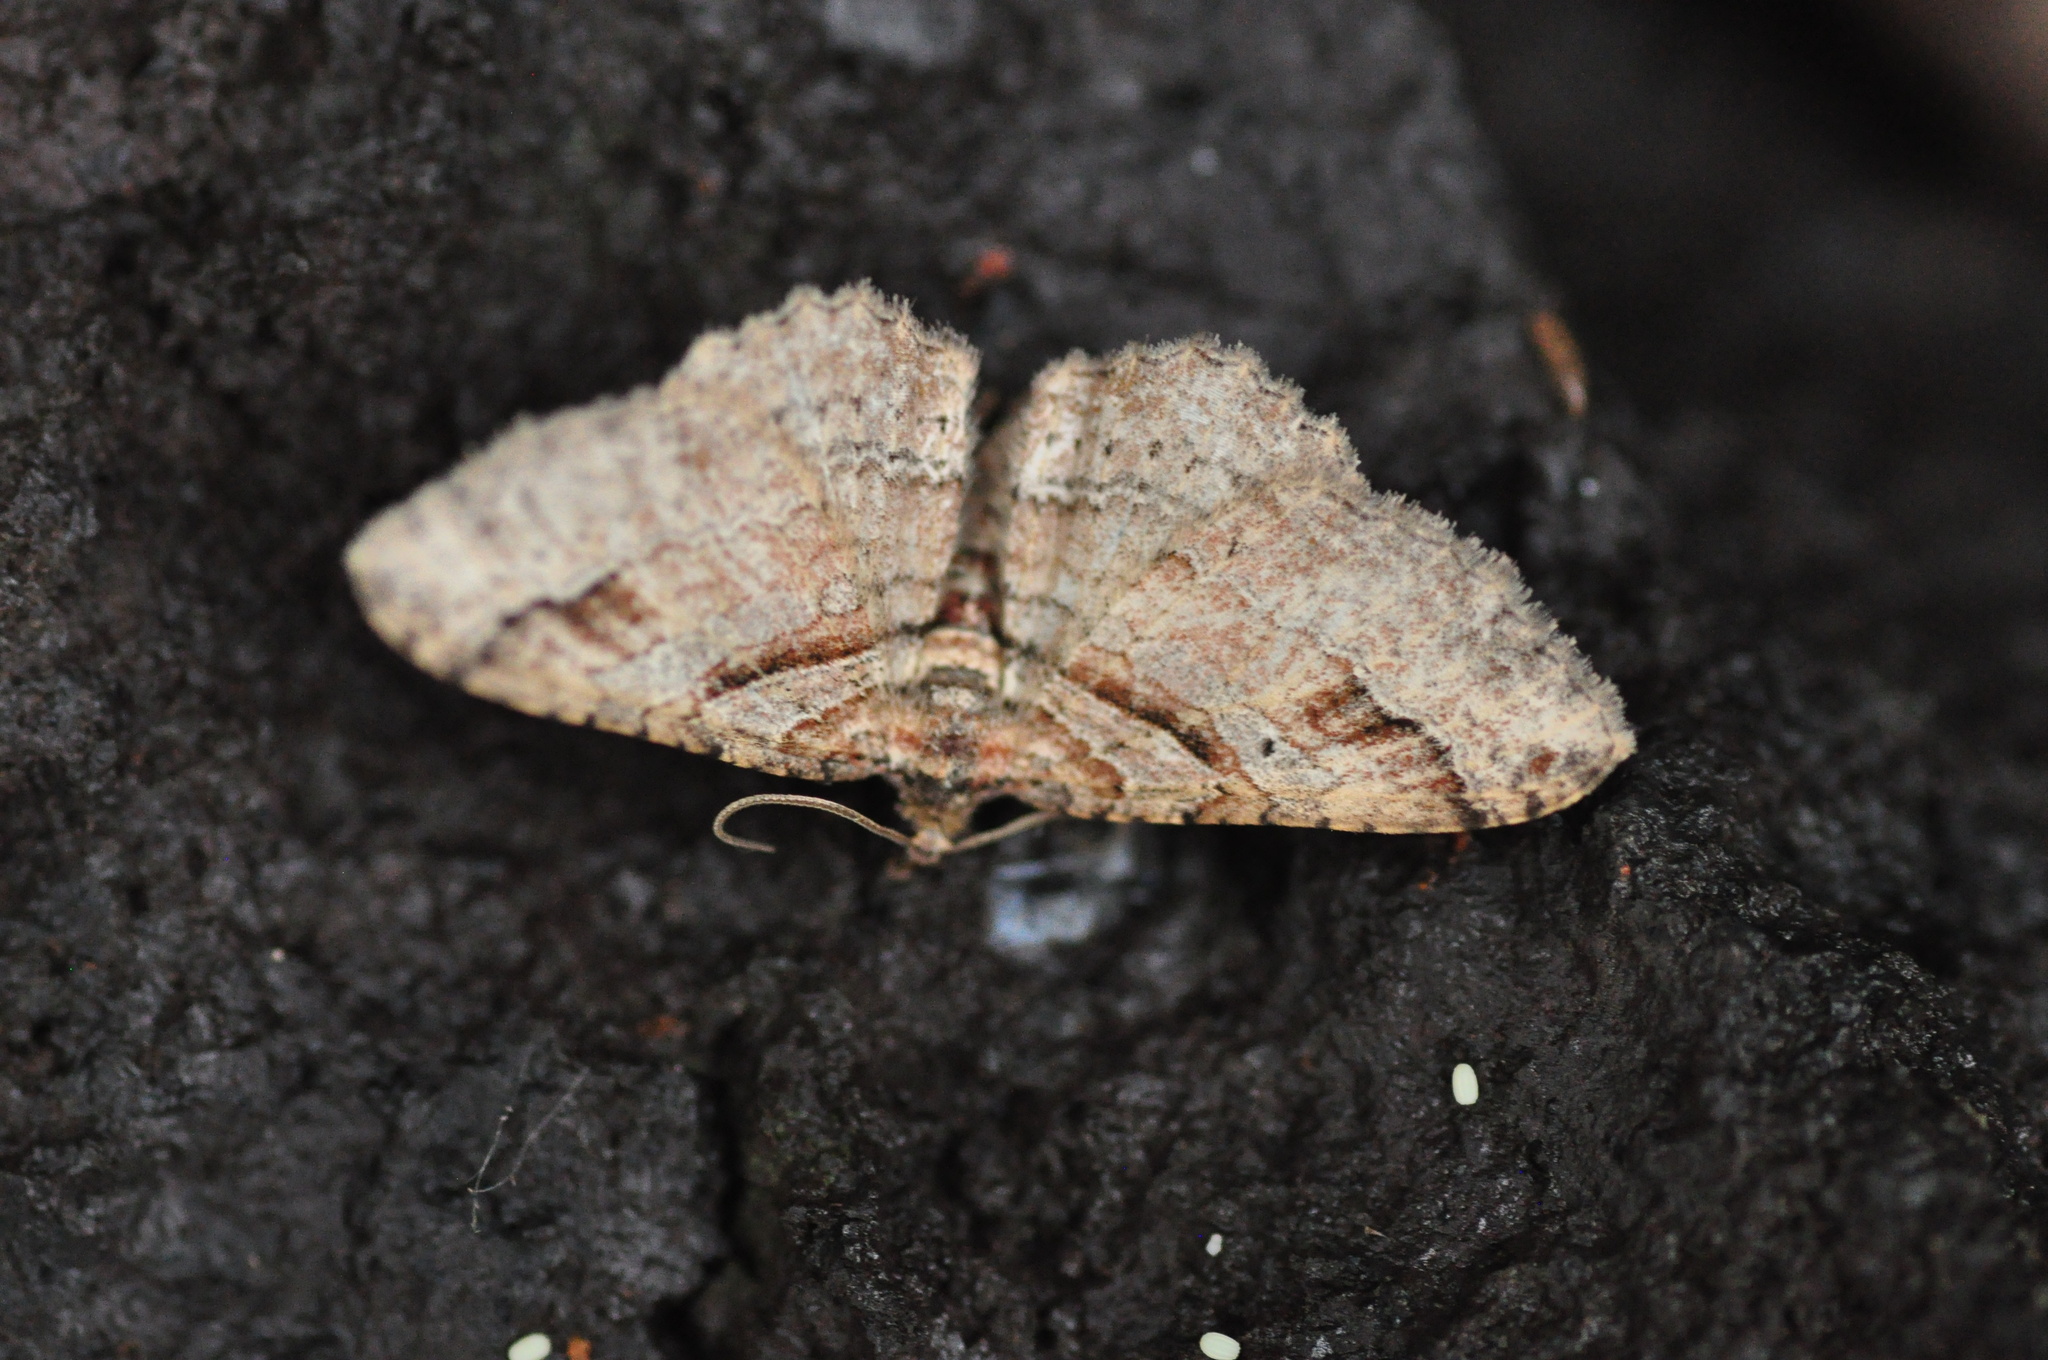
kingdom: Animalia
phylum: Arthropoda
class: Insecta
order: Lepidoptera
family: Geometridae
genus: Costaconvexa
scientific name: Costaconvexa centrostrigaria
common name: Bent-line carpet
